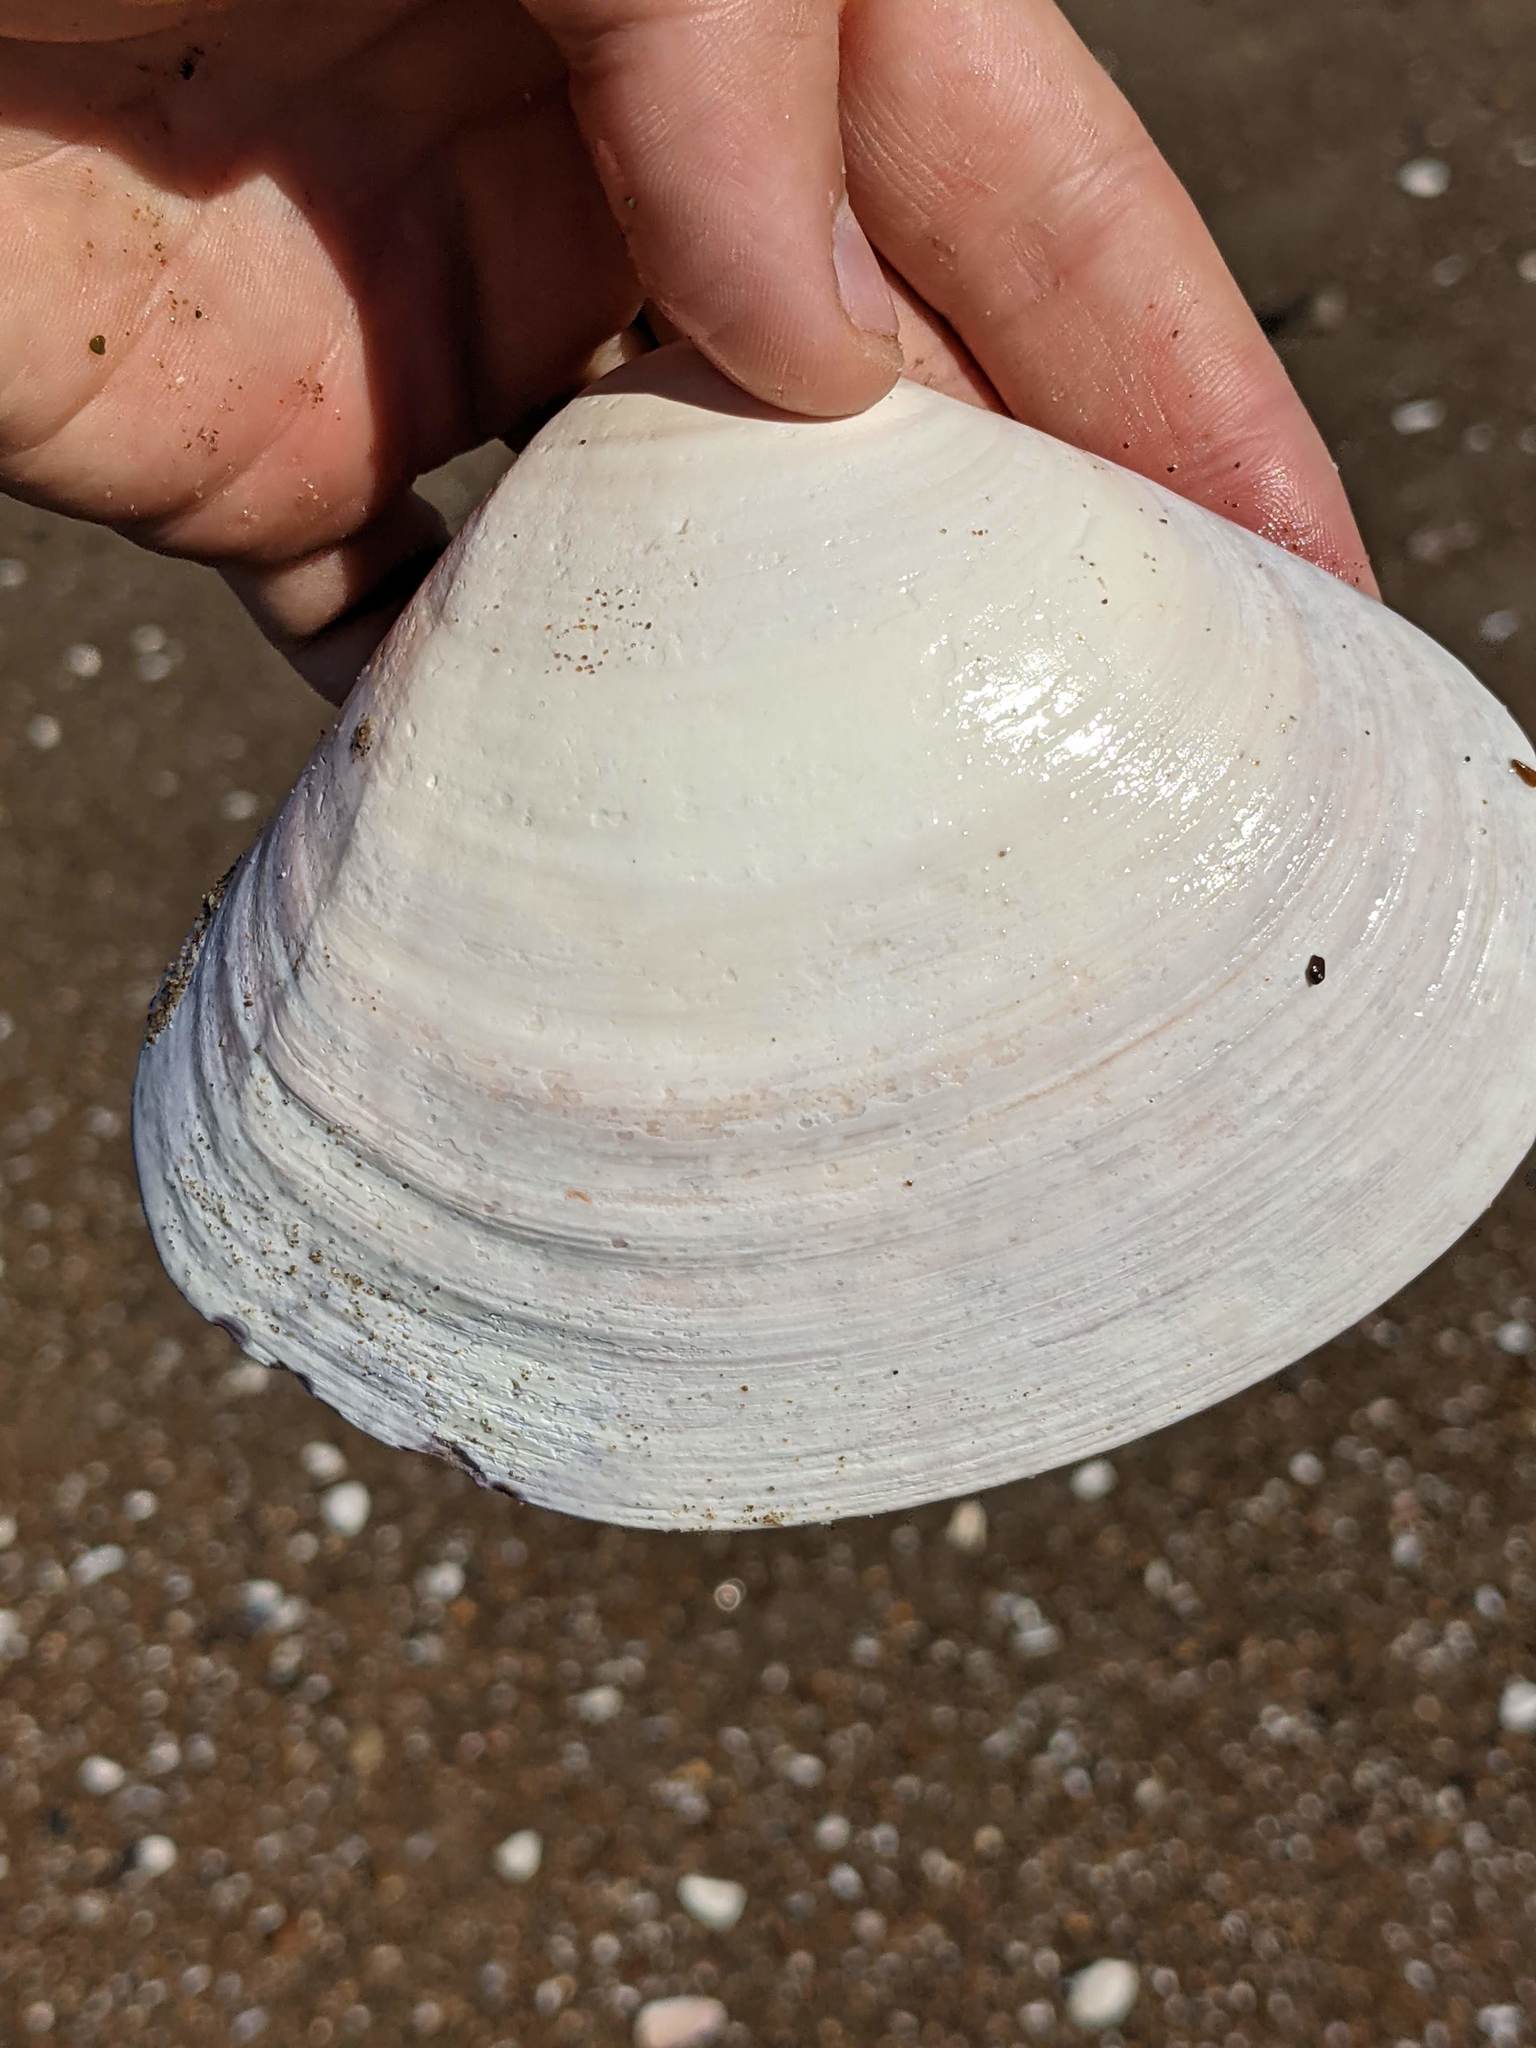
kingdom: Animalia
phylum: Mollusca
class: Bivalvia
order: Venerida
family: Veneridae
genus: Tivela
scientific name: Tivela stultorum
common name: Pismo clam
